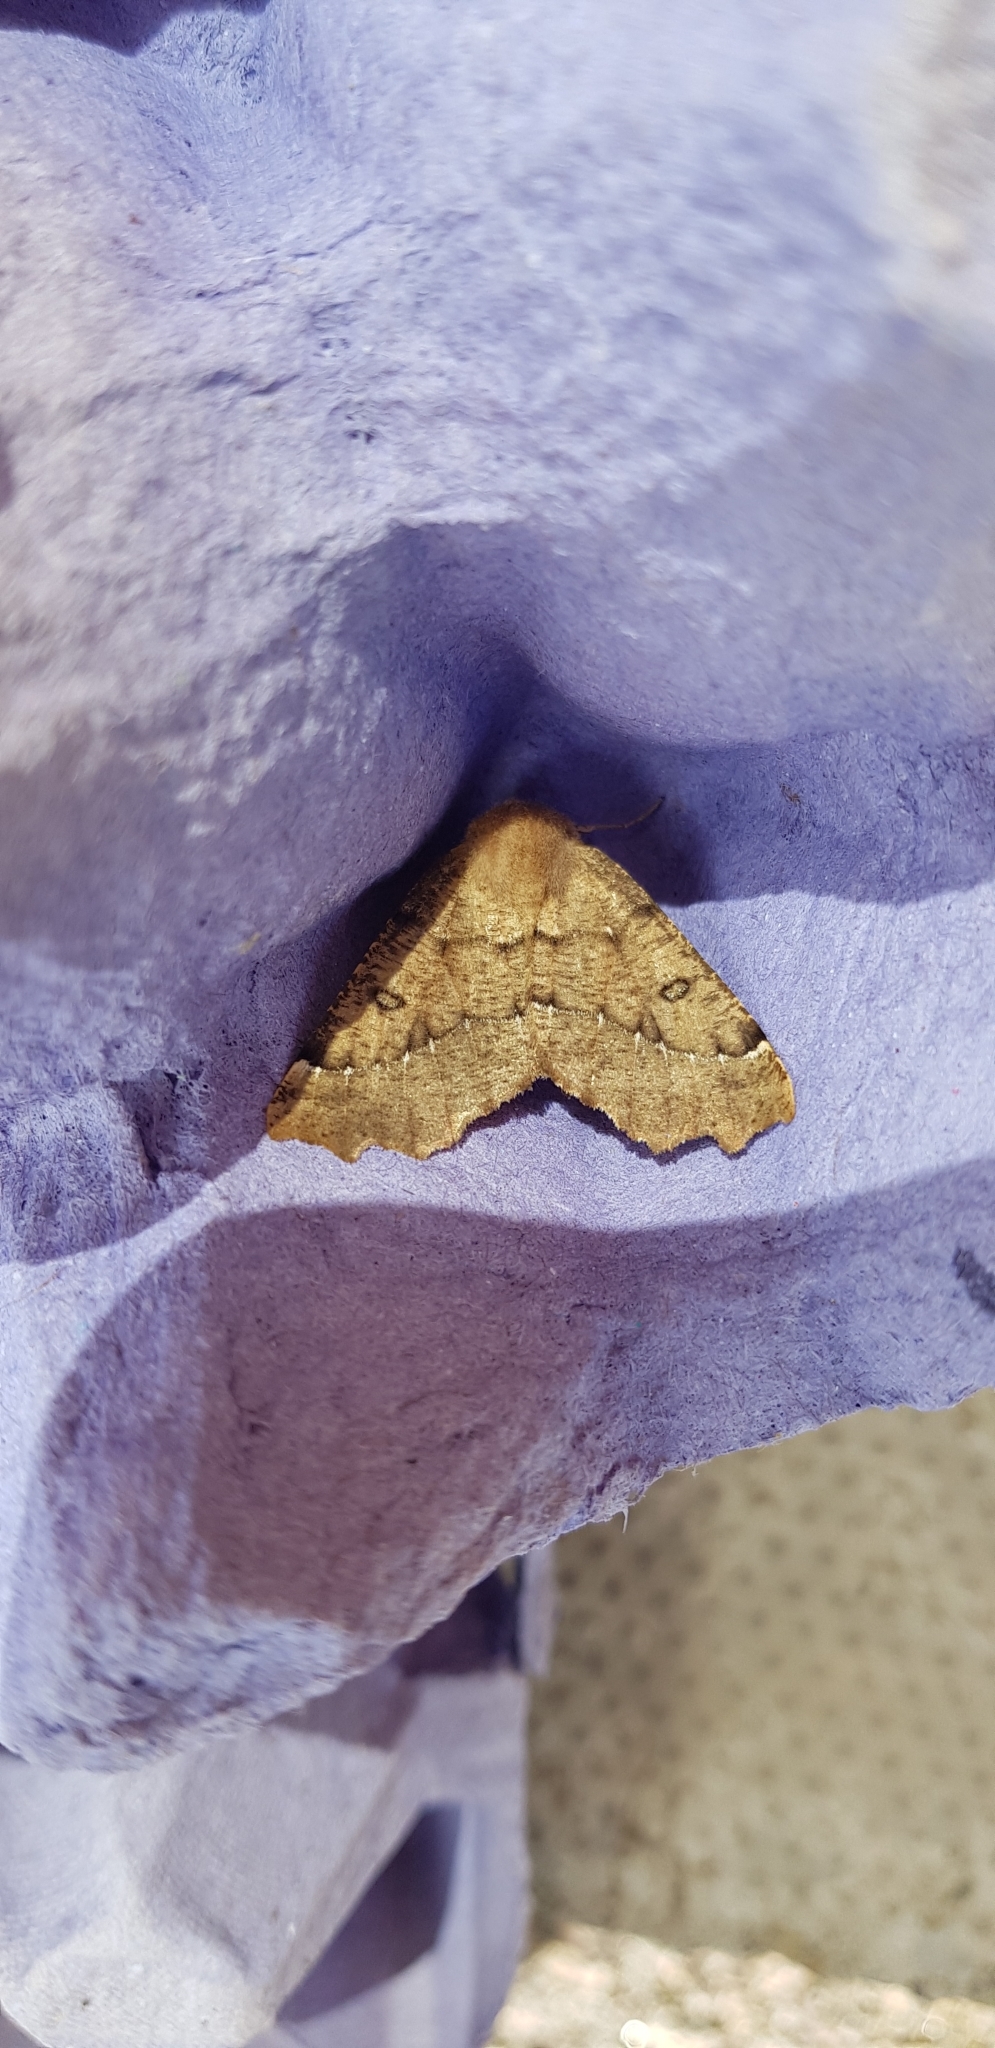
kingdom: Animalia
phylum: Arthropoda
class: Insecta
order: Lepidoptera
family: Geometridae
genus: Odontopera
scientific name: Odontopera bidentata
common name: Scalloped hazel
